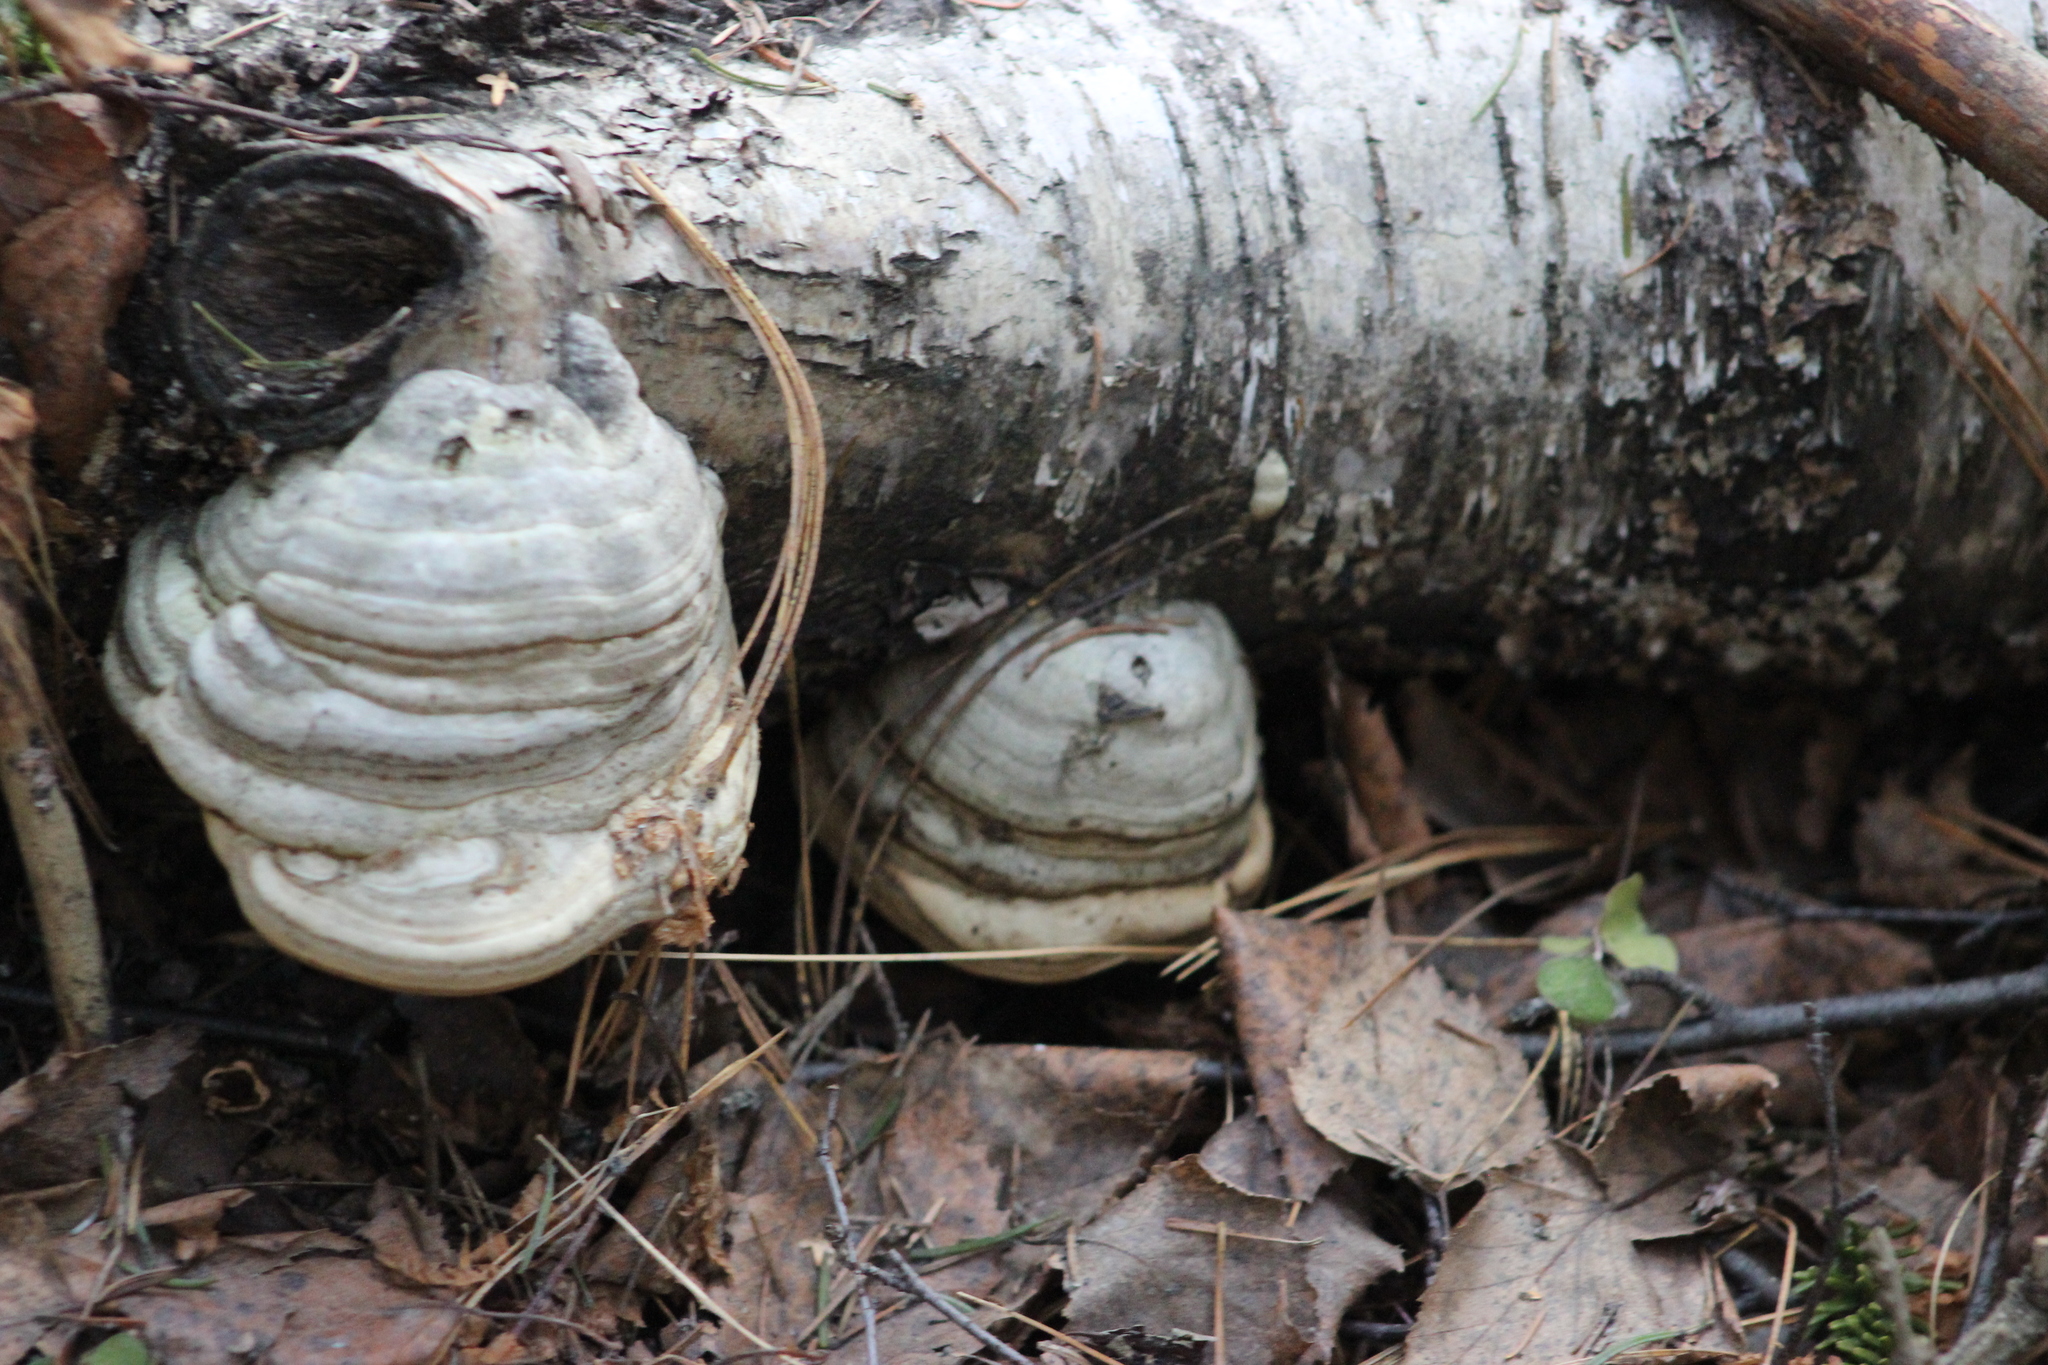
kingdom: Fungi
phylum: Basidiomycota
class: Agaricomycetes
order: Polyporales
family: Polyporaceae
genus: Fomes
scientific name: Fomes fomentarius
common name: Hoof fungus
